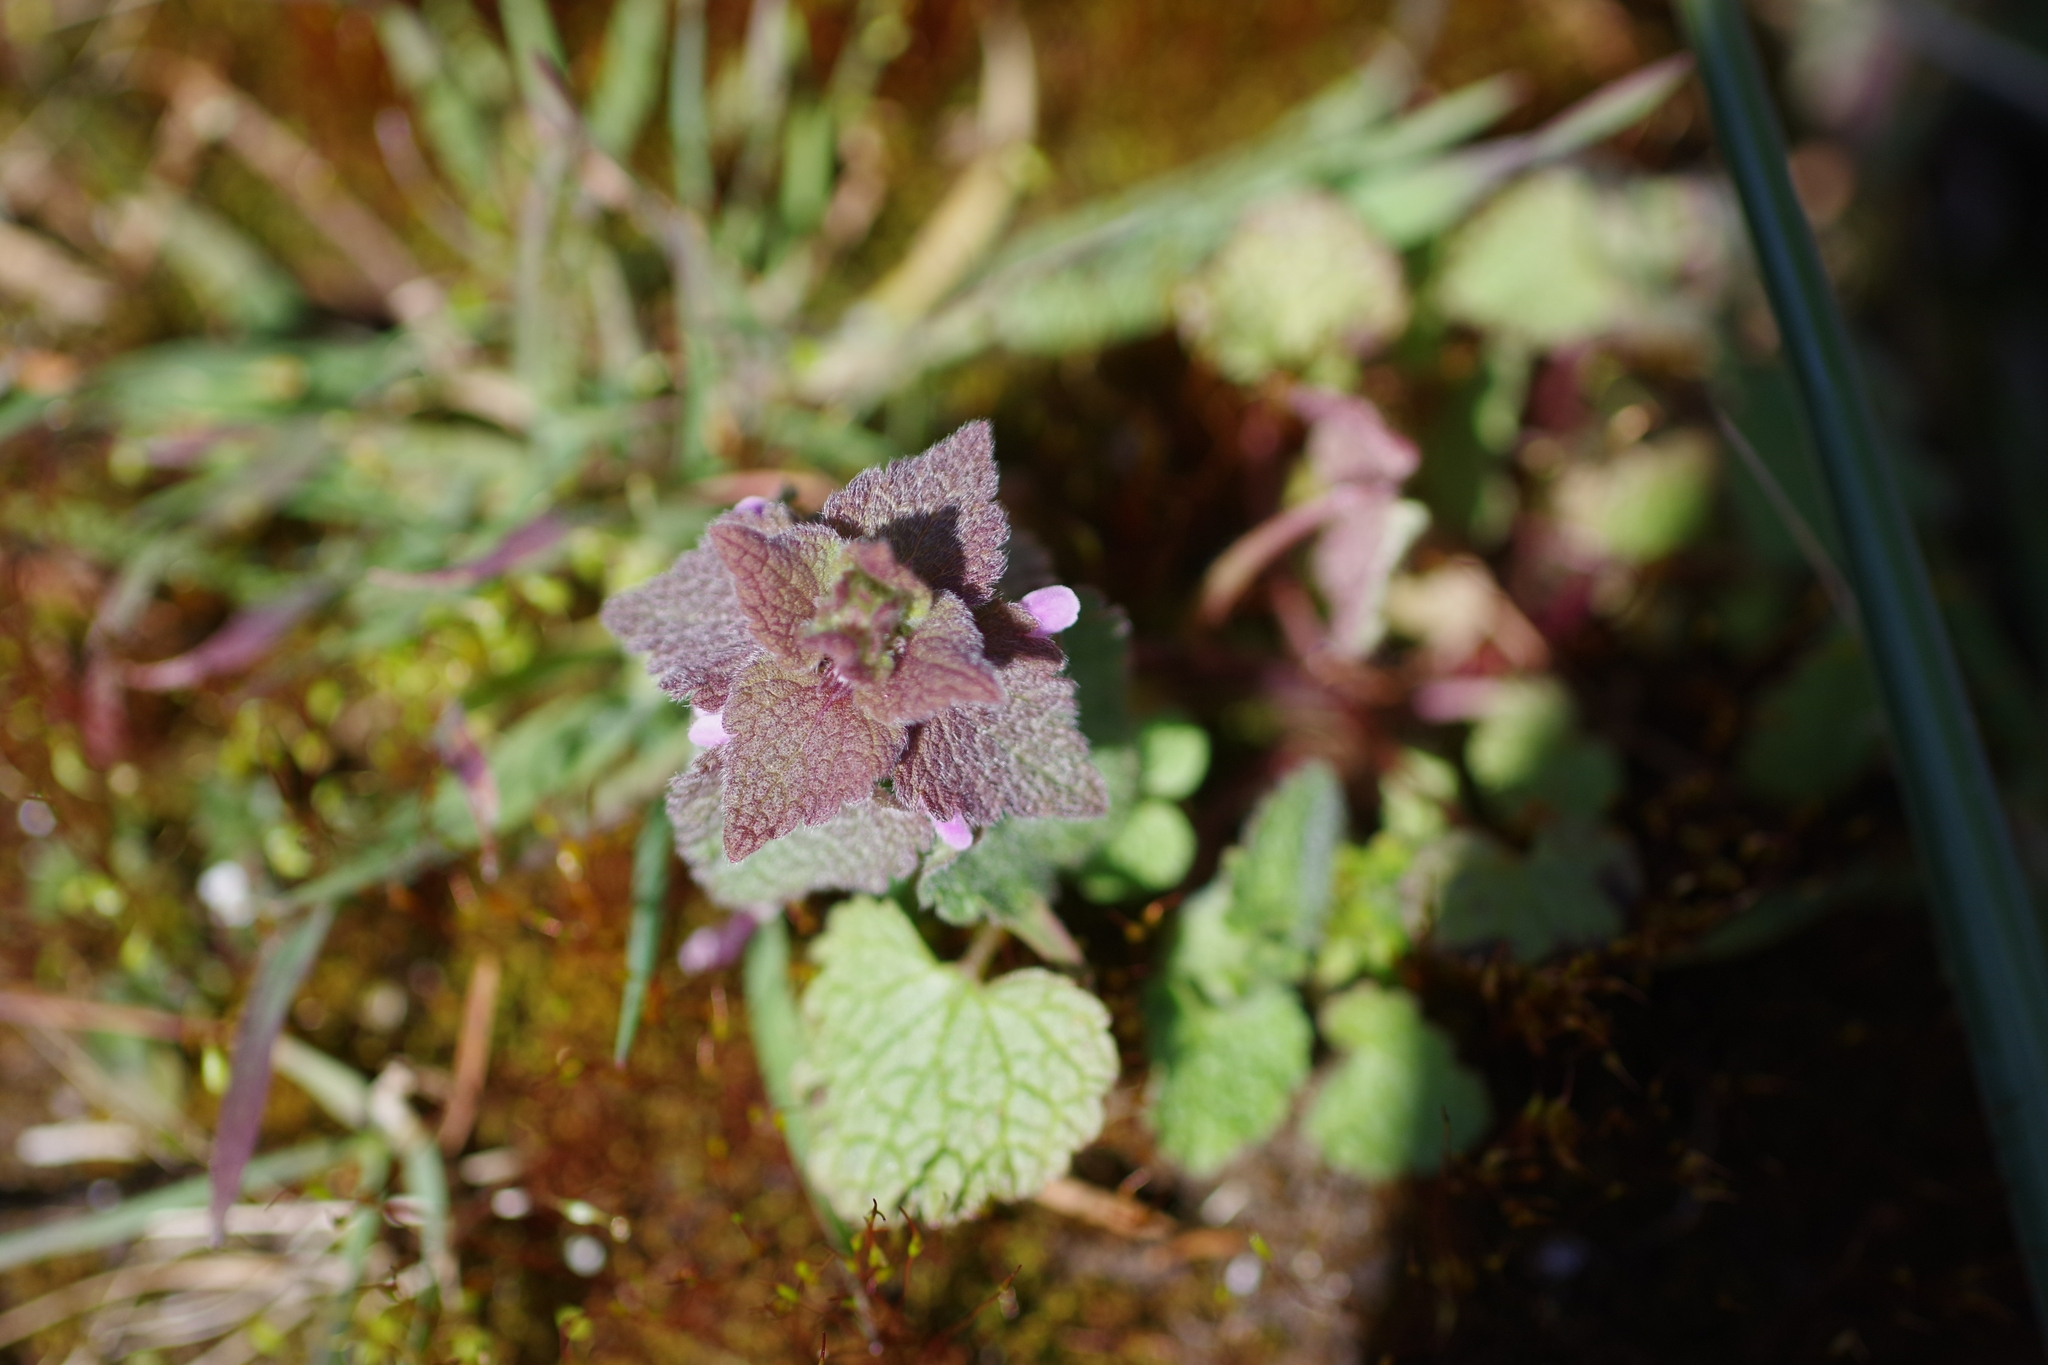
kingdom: Plantae
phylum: Tracheophyta
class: Magnoliopsida
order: Lamiales
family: Lamiaceae
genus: Lamium
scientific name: Lamium purpureum
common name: Red dead-nettle
